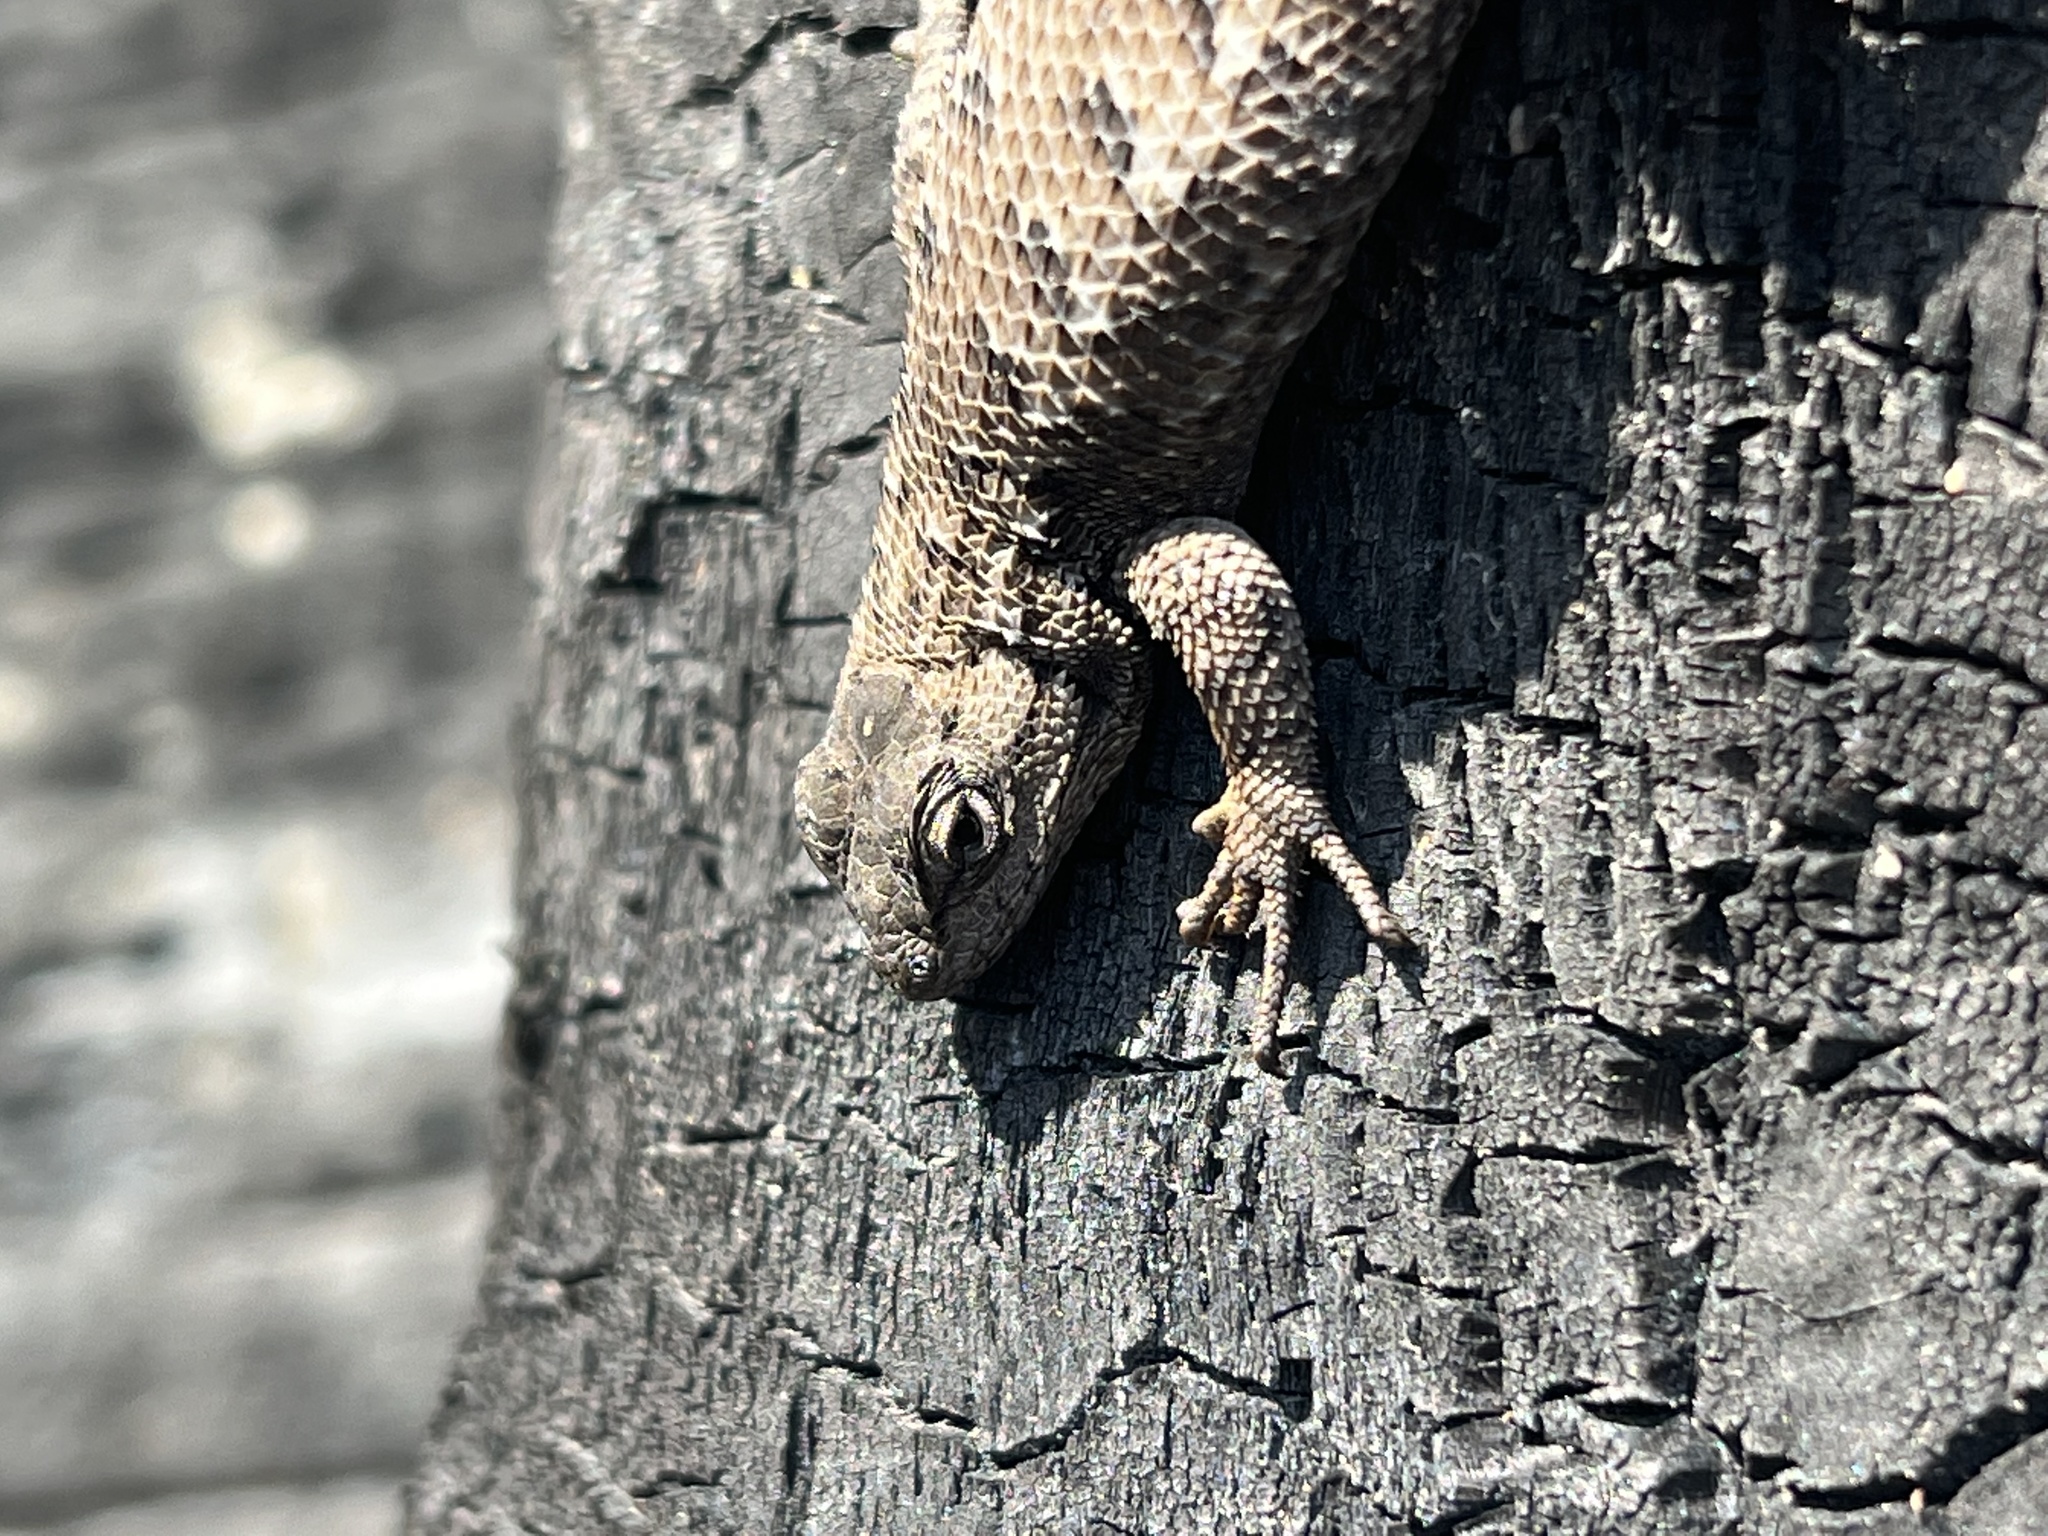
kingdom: Animalia
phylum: Chordata
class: Squamata
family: Phrynosomatidae
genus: Sceloporus
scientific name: Sceloporus occidentalis
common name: Western fence lizard
